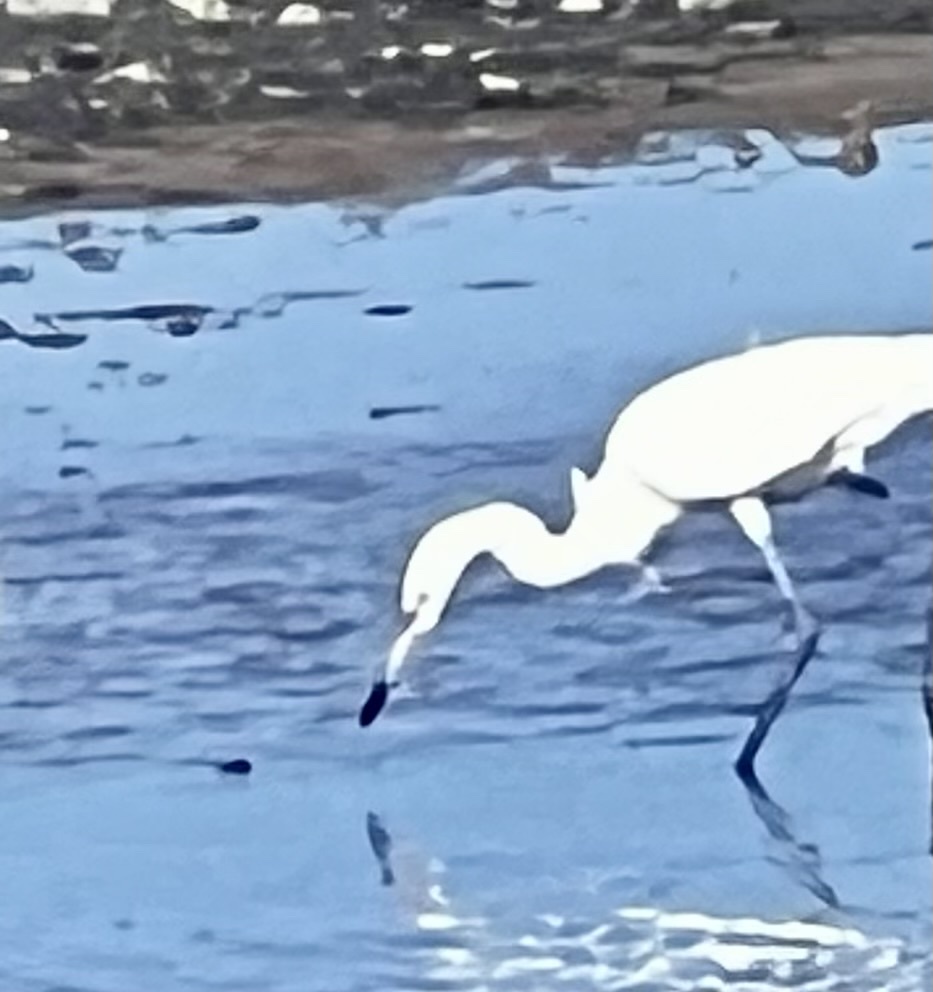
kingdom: Animalia
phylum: Chordata
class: Aves
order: Pelecaniformes
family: Ardeidae
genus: Egretta
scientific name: Egretta caerulea
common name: Little blue heron
